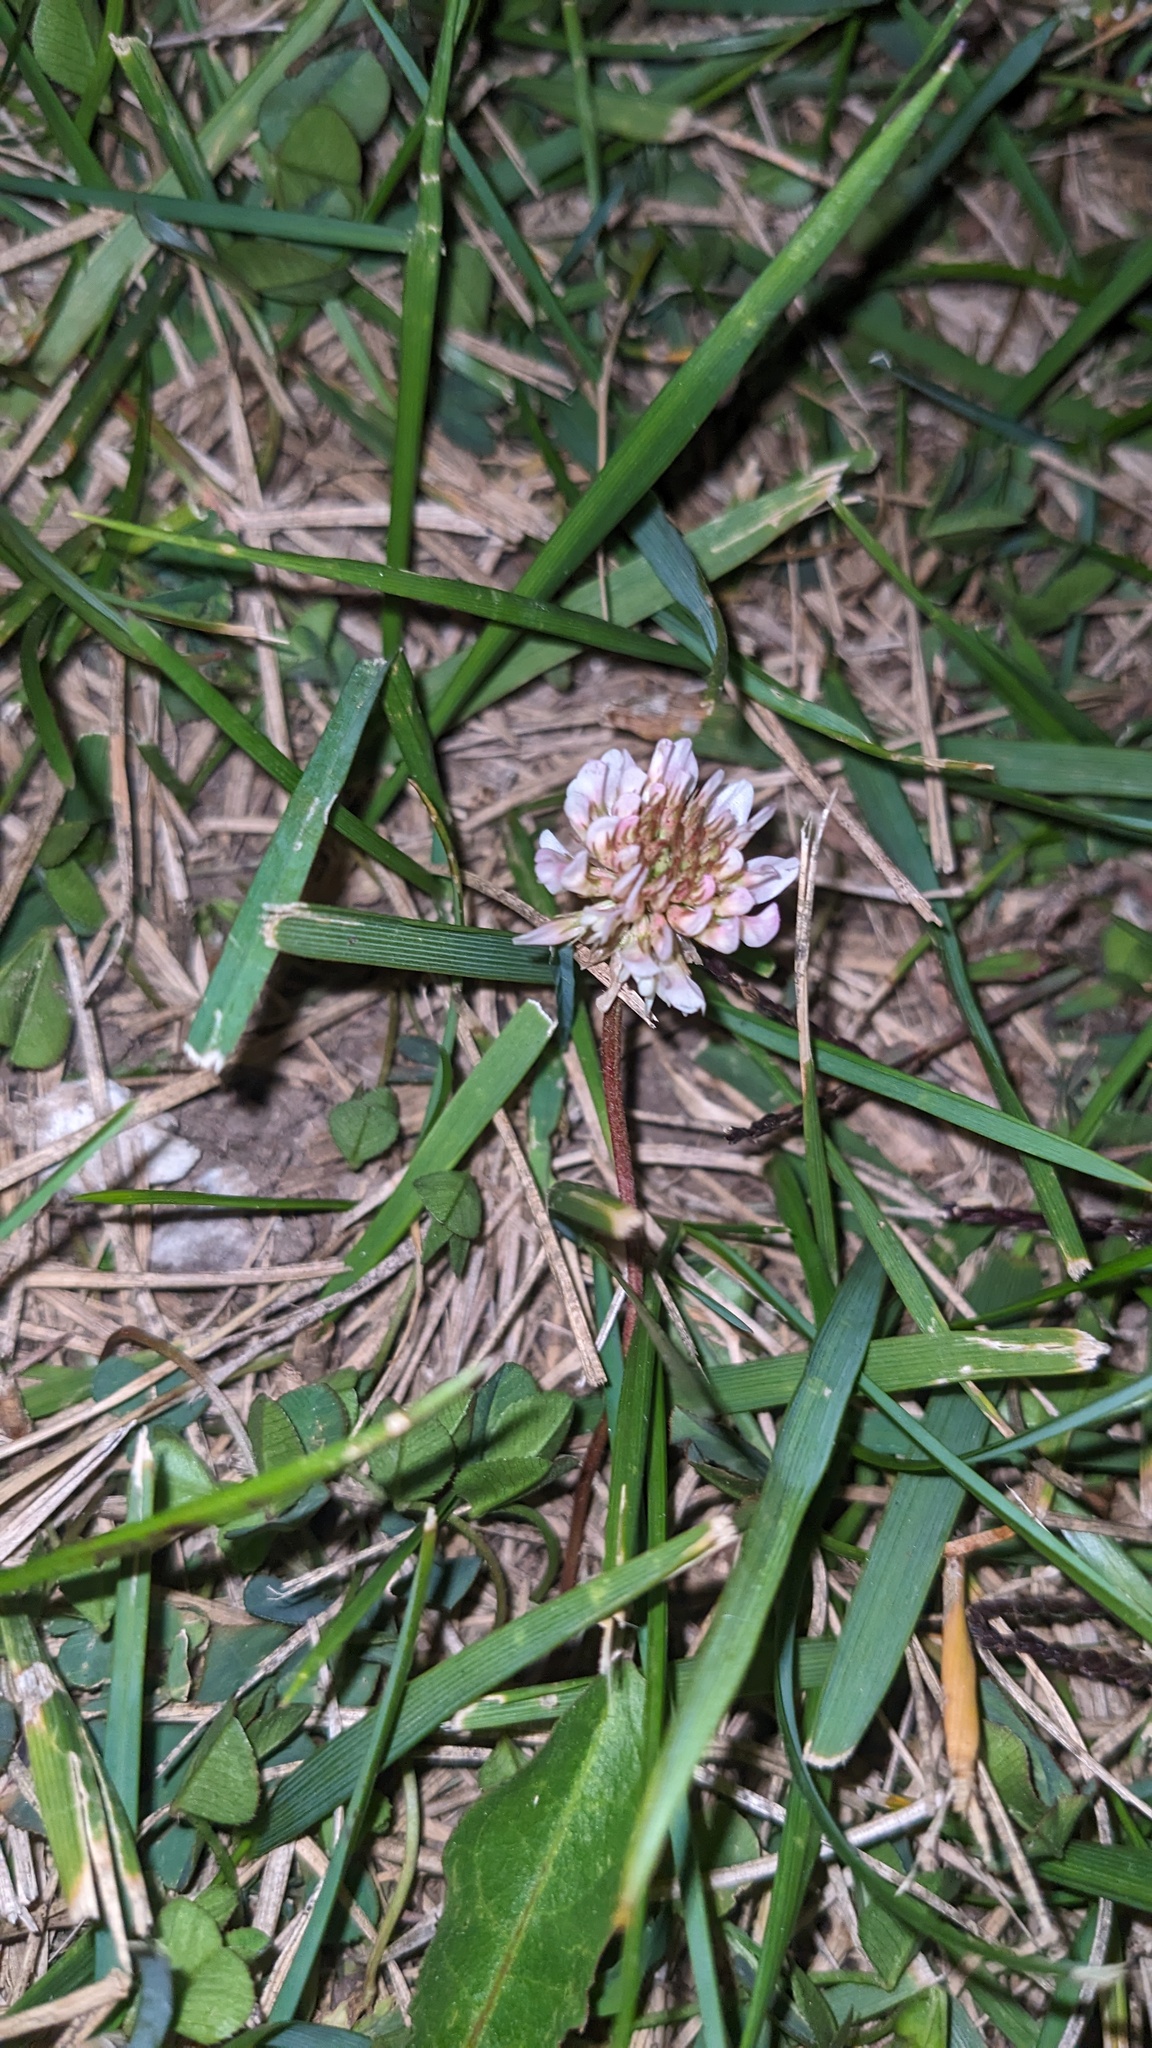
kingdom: Plantae
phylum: Tracheophyta
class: Magnoliopsida
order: Fabales
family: Fabaceae
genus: Trifolium
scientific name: Trifolium repens
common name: White clover
